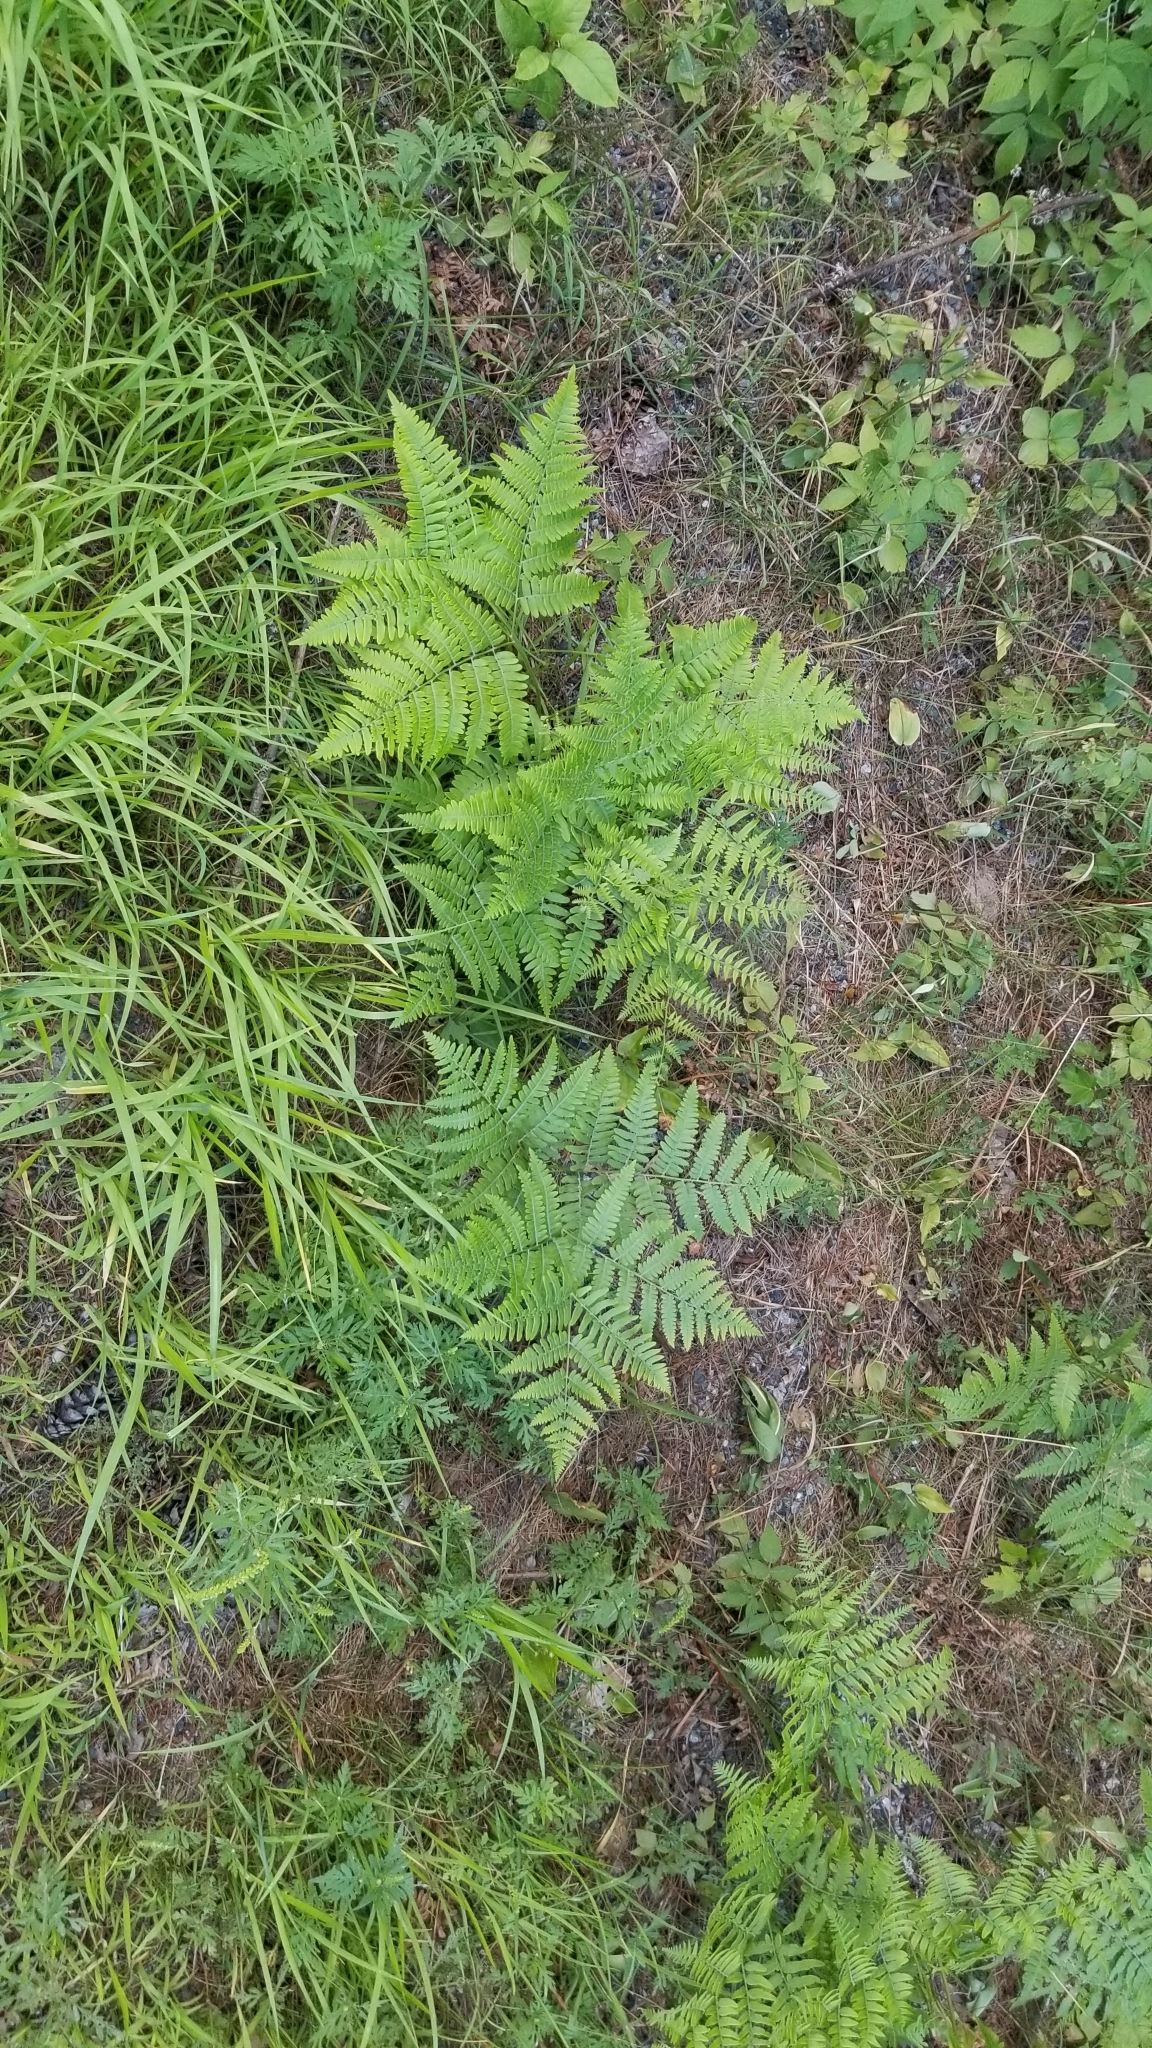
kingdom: Plantae
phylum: Tracheophyta
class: Polypodiopsida
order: Polypodiales
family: Dennstaedtiaceae
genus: Pteridium
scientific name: Pteridium aquilinum
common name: Bracken
